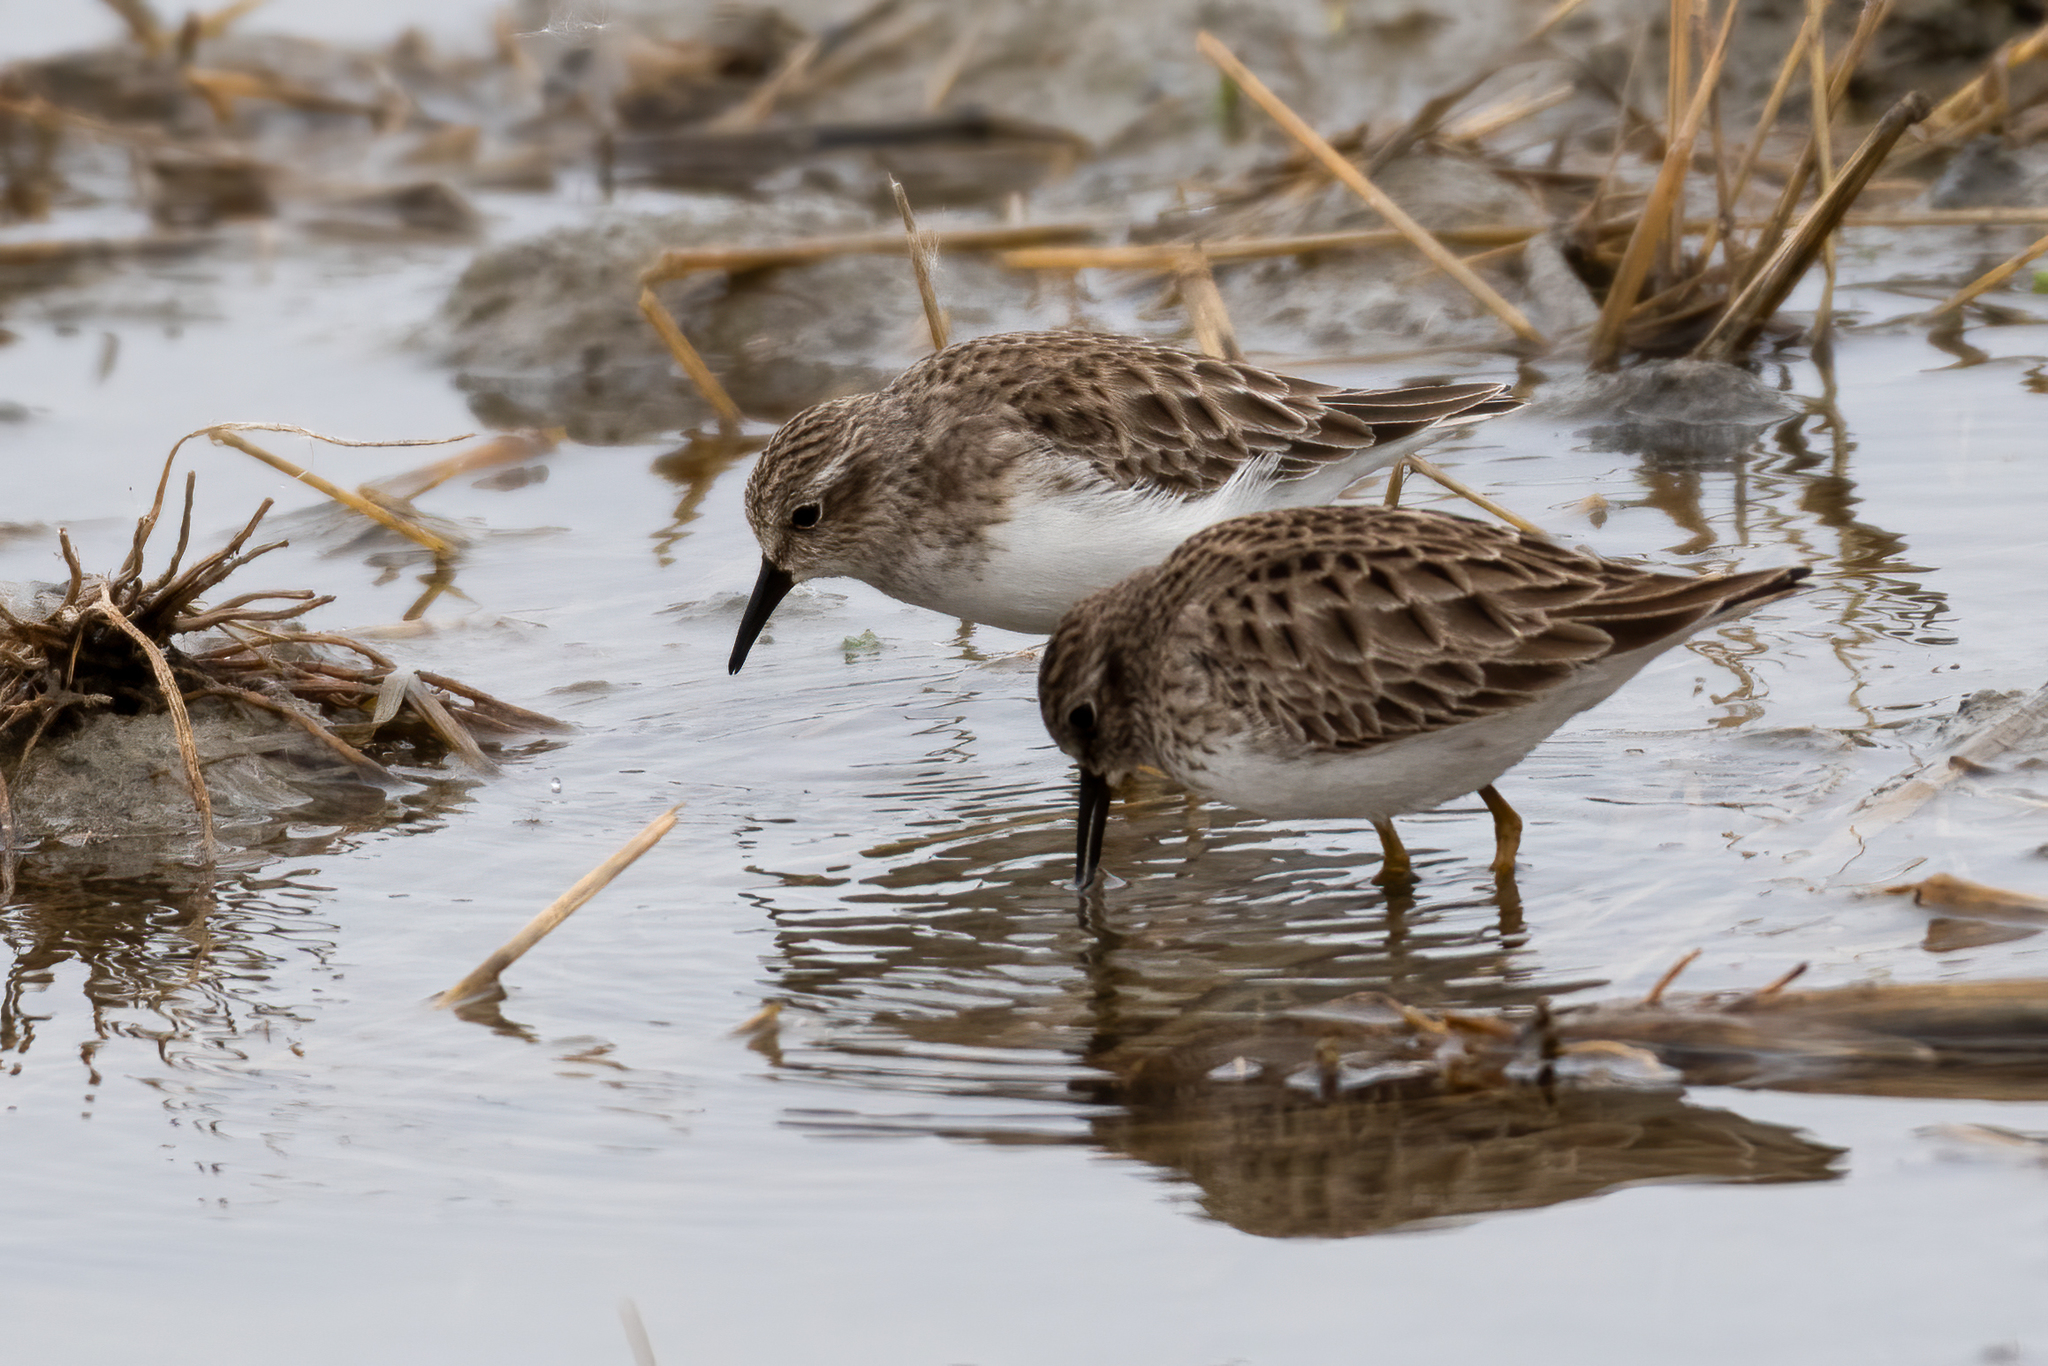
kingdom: Animalia
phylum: Chordata
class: Aves
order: Charadriiformes
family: Scolopacidae
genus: Calidris
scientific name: Calidris minutilla
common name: Least sandpiper
